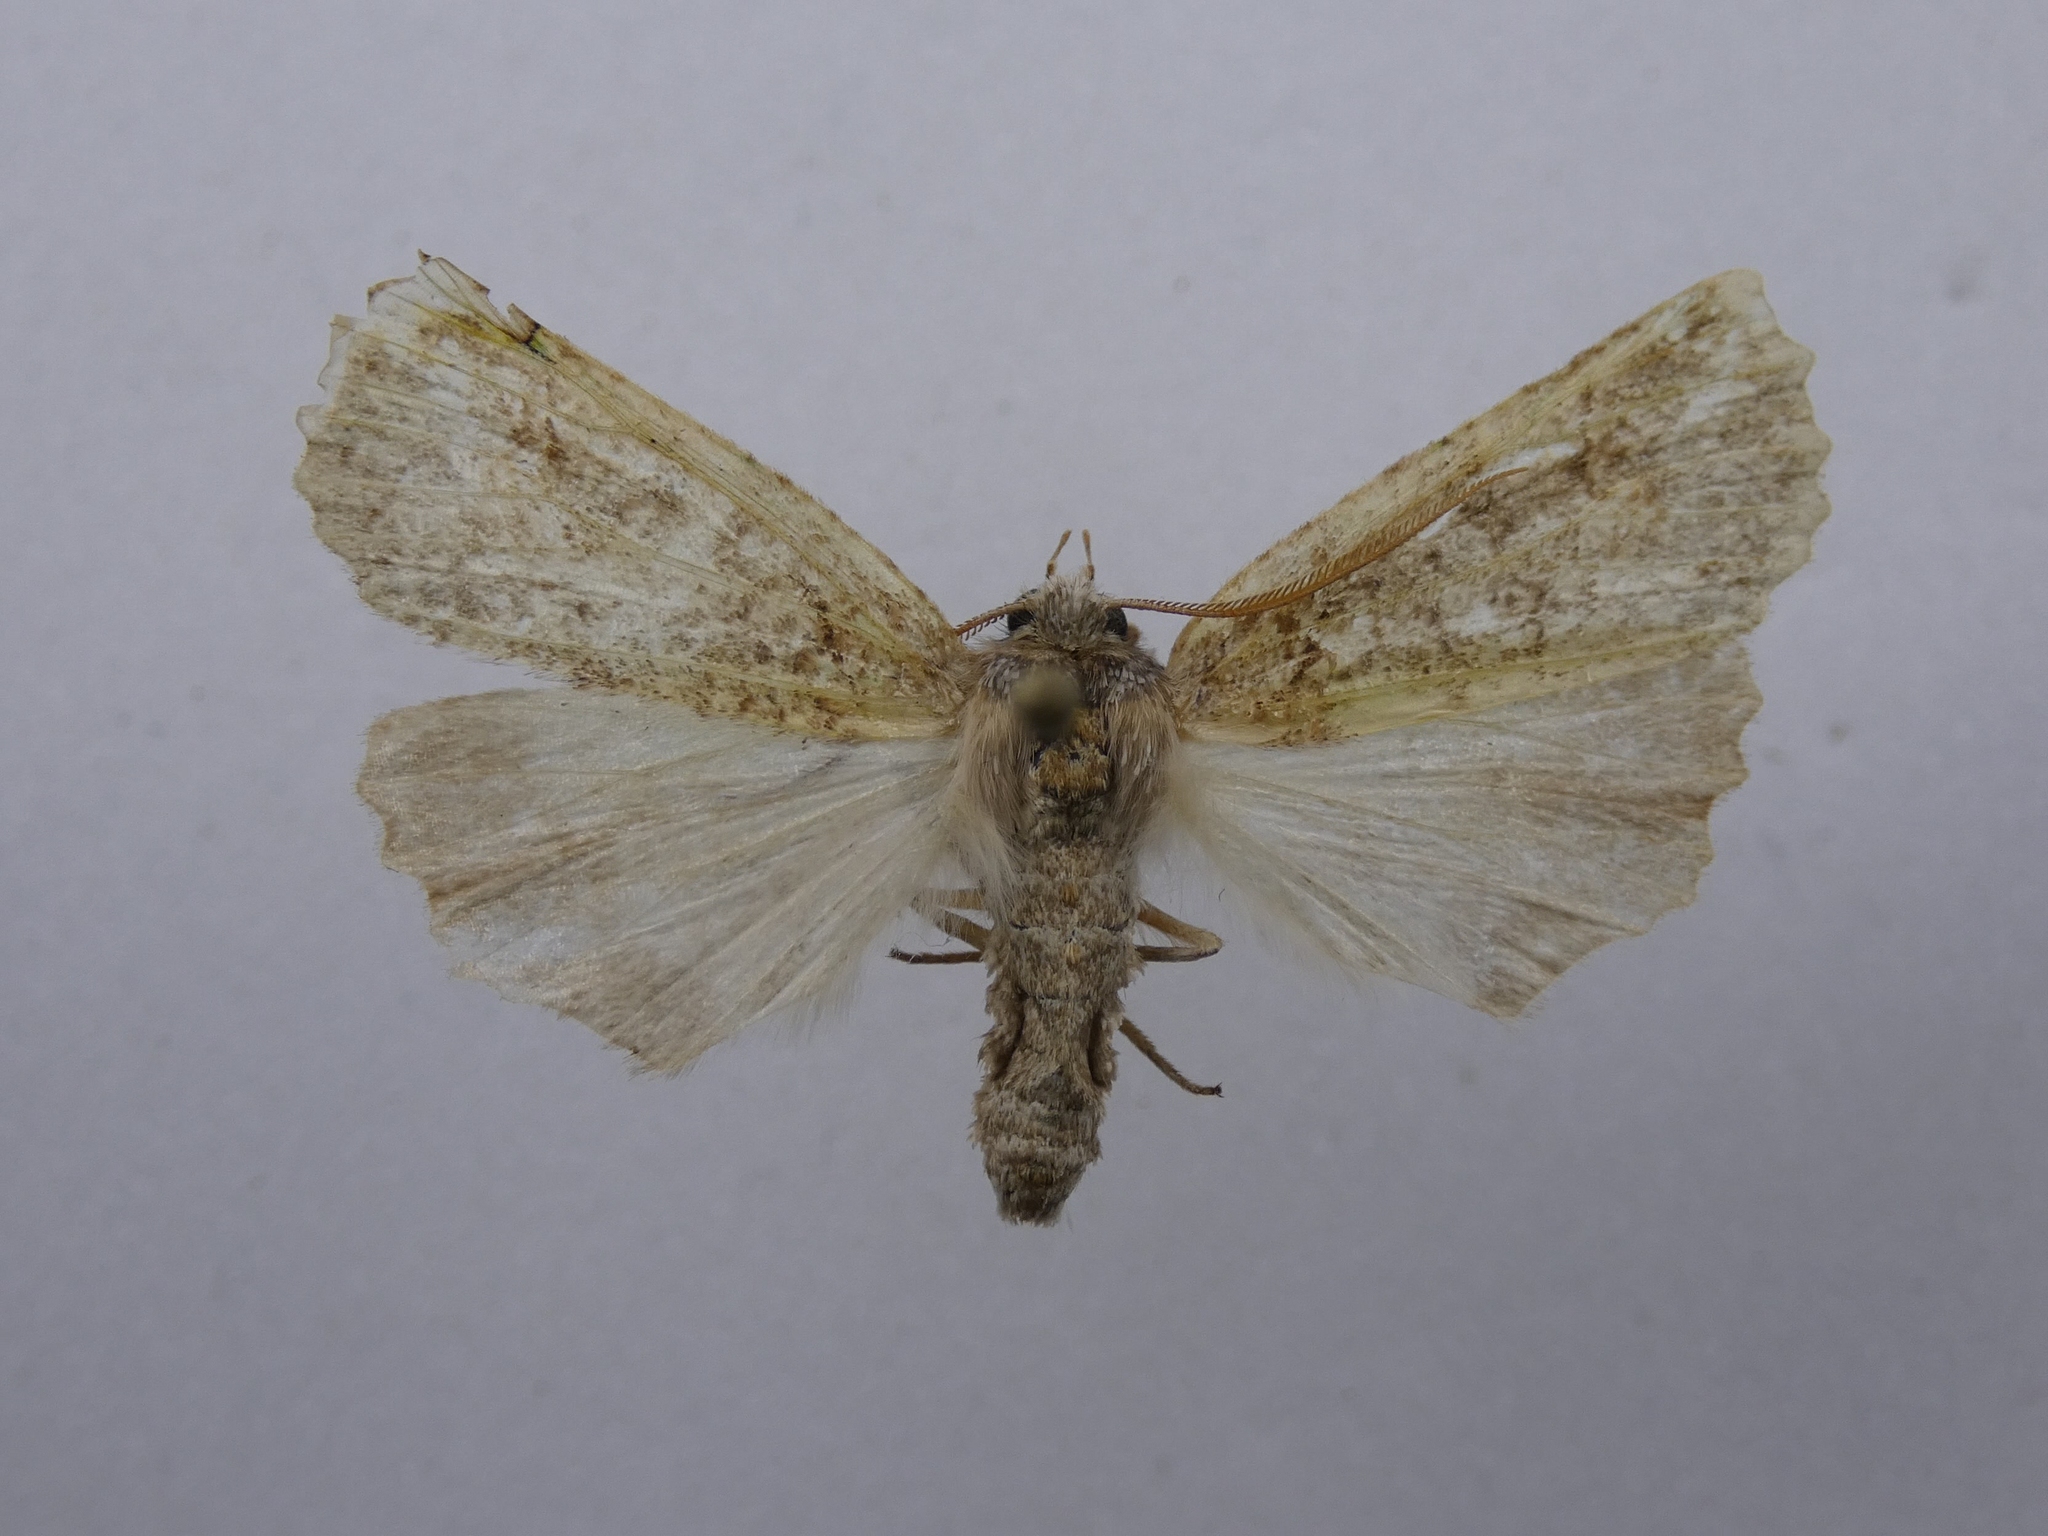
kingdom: Animalia
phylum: Arthropoda
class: Insecta
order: Lepidoptera
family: Geometridae
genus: Declana
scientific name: Declana floccosa
